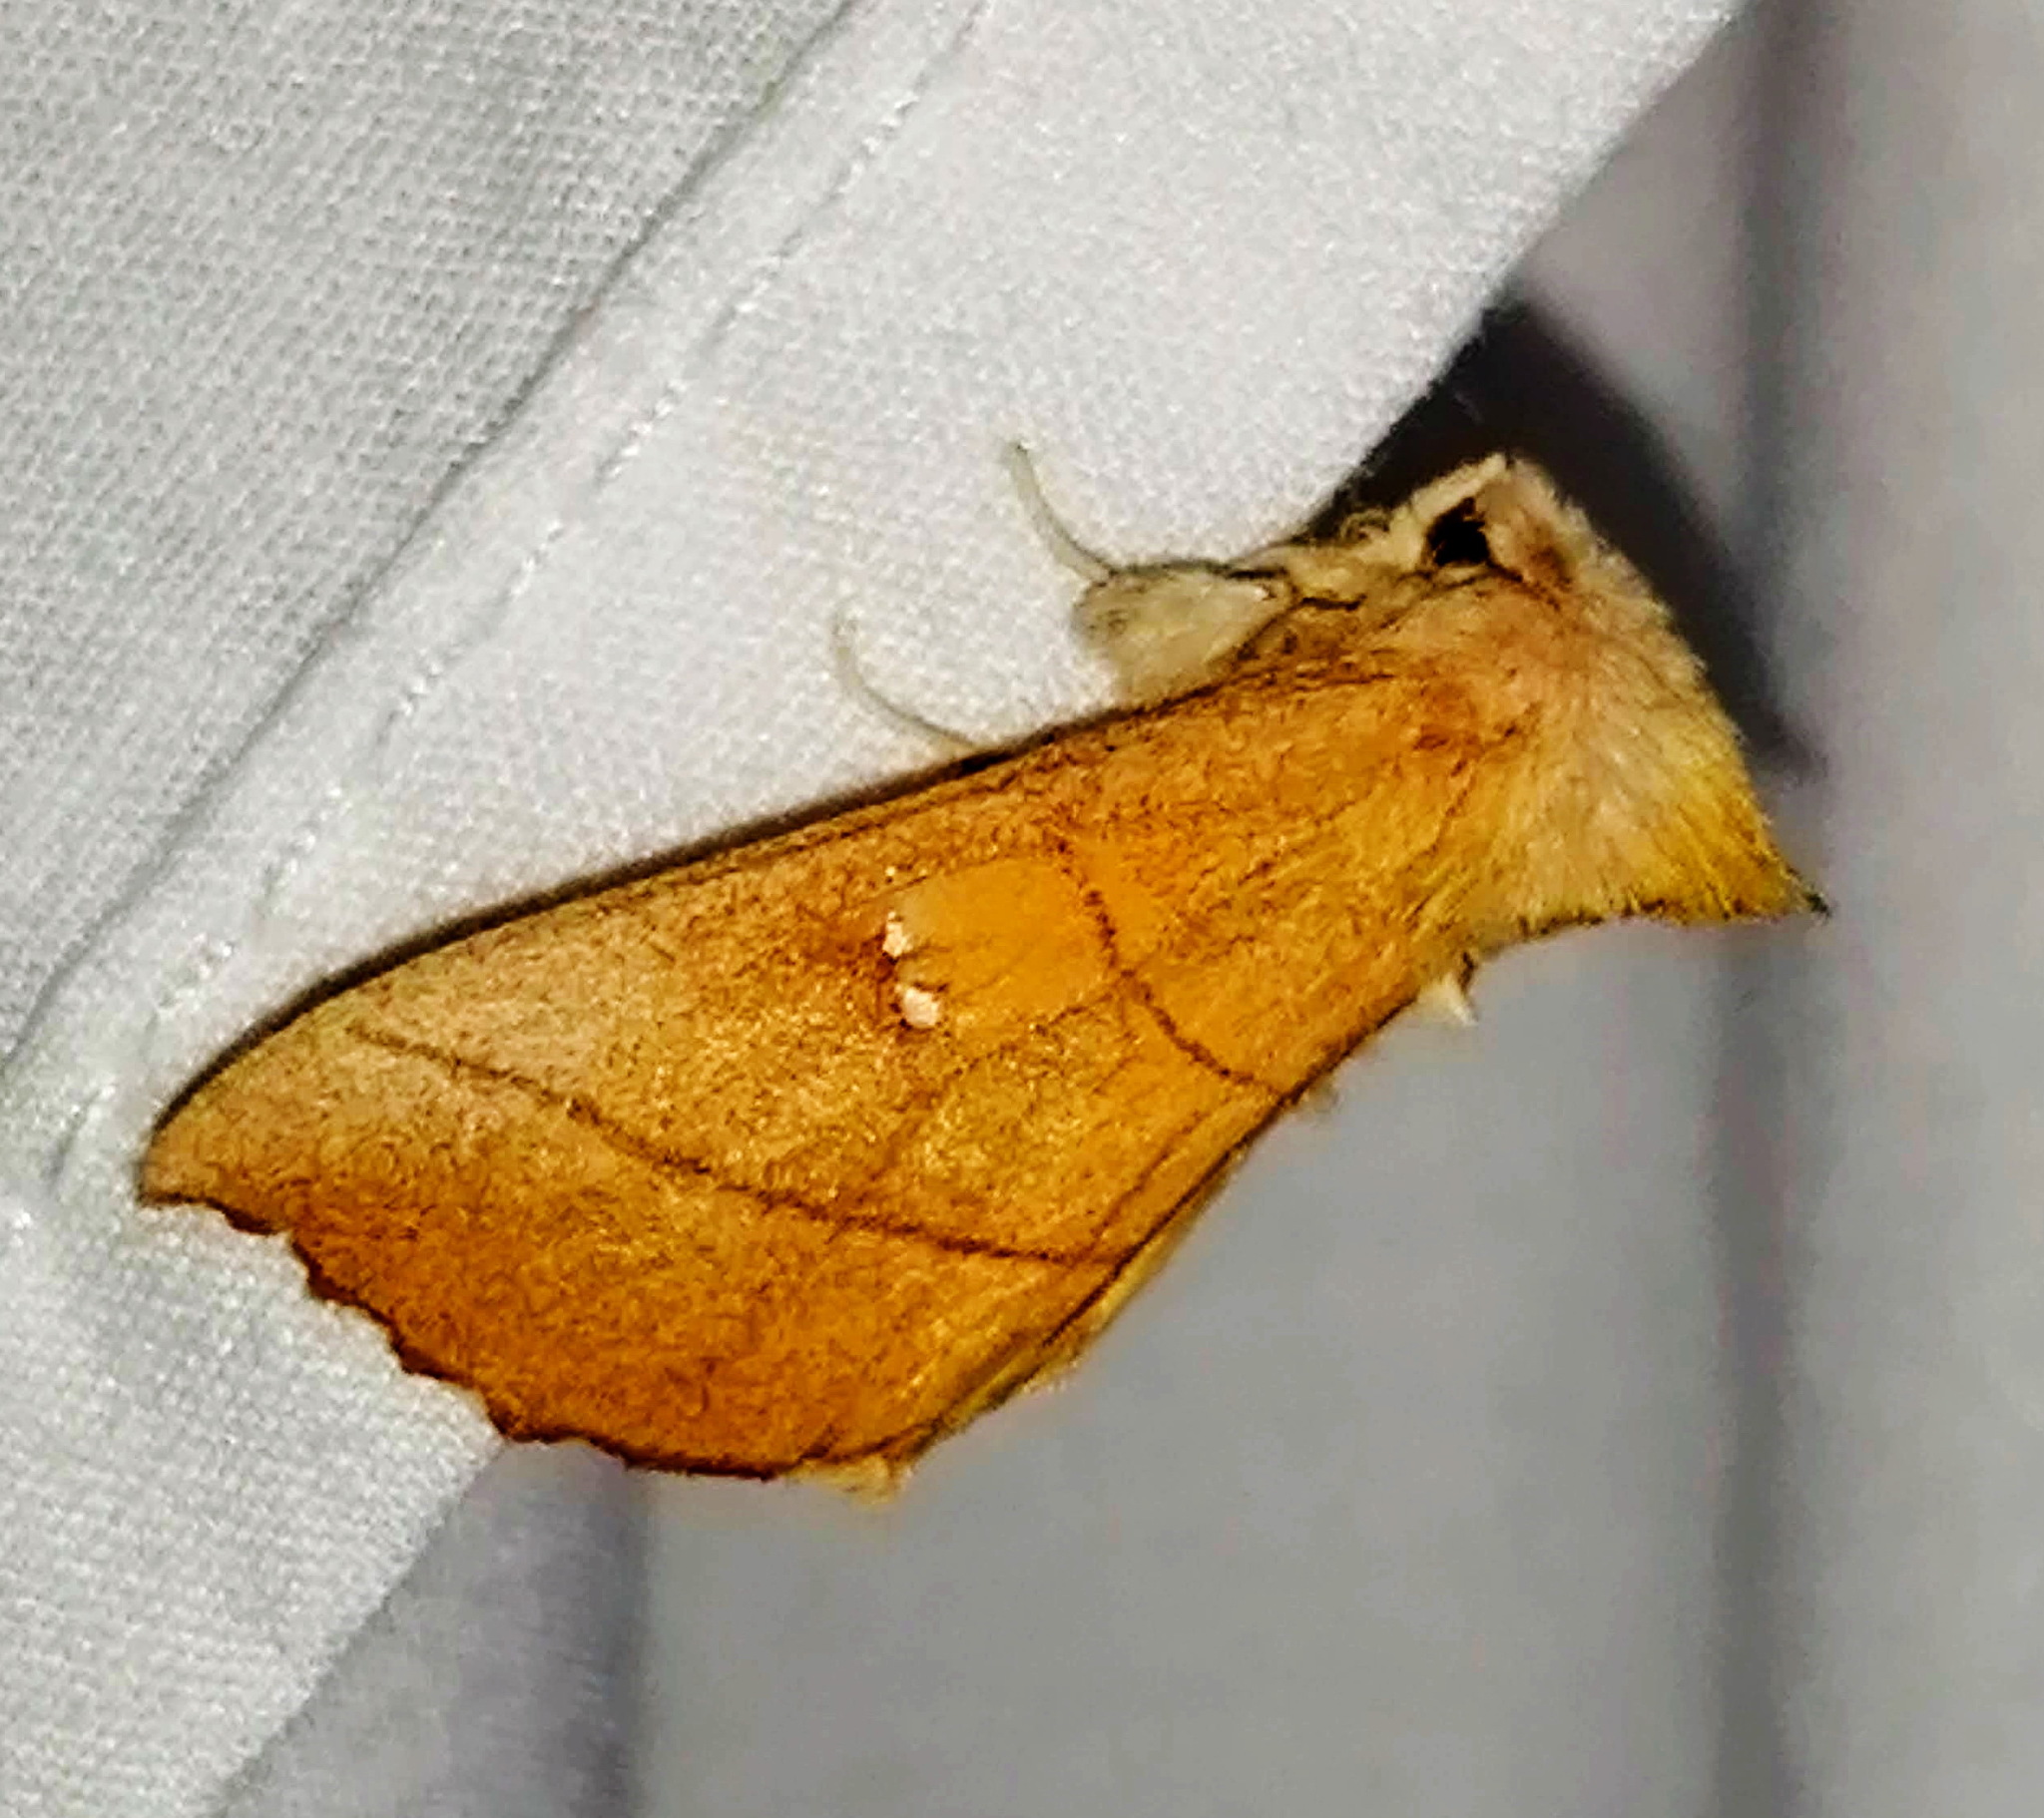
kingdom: Animalia
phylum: Arthropoda
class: Insecta
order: Lepidoptera
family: Notodontidae
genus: Nadata
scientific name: Nadata gibbosa
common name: White-dotted prominent
